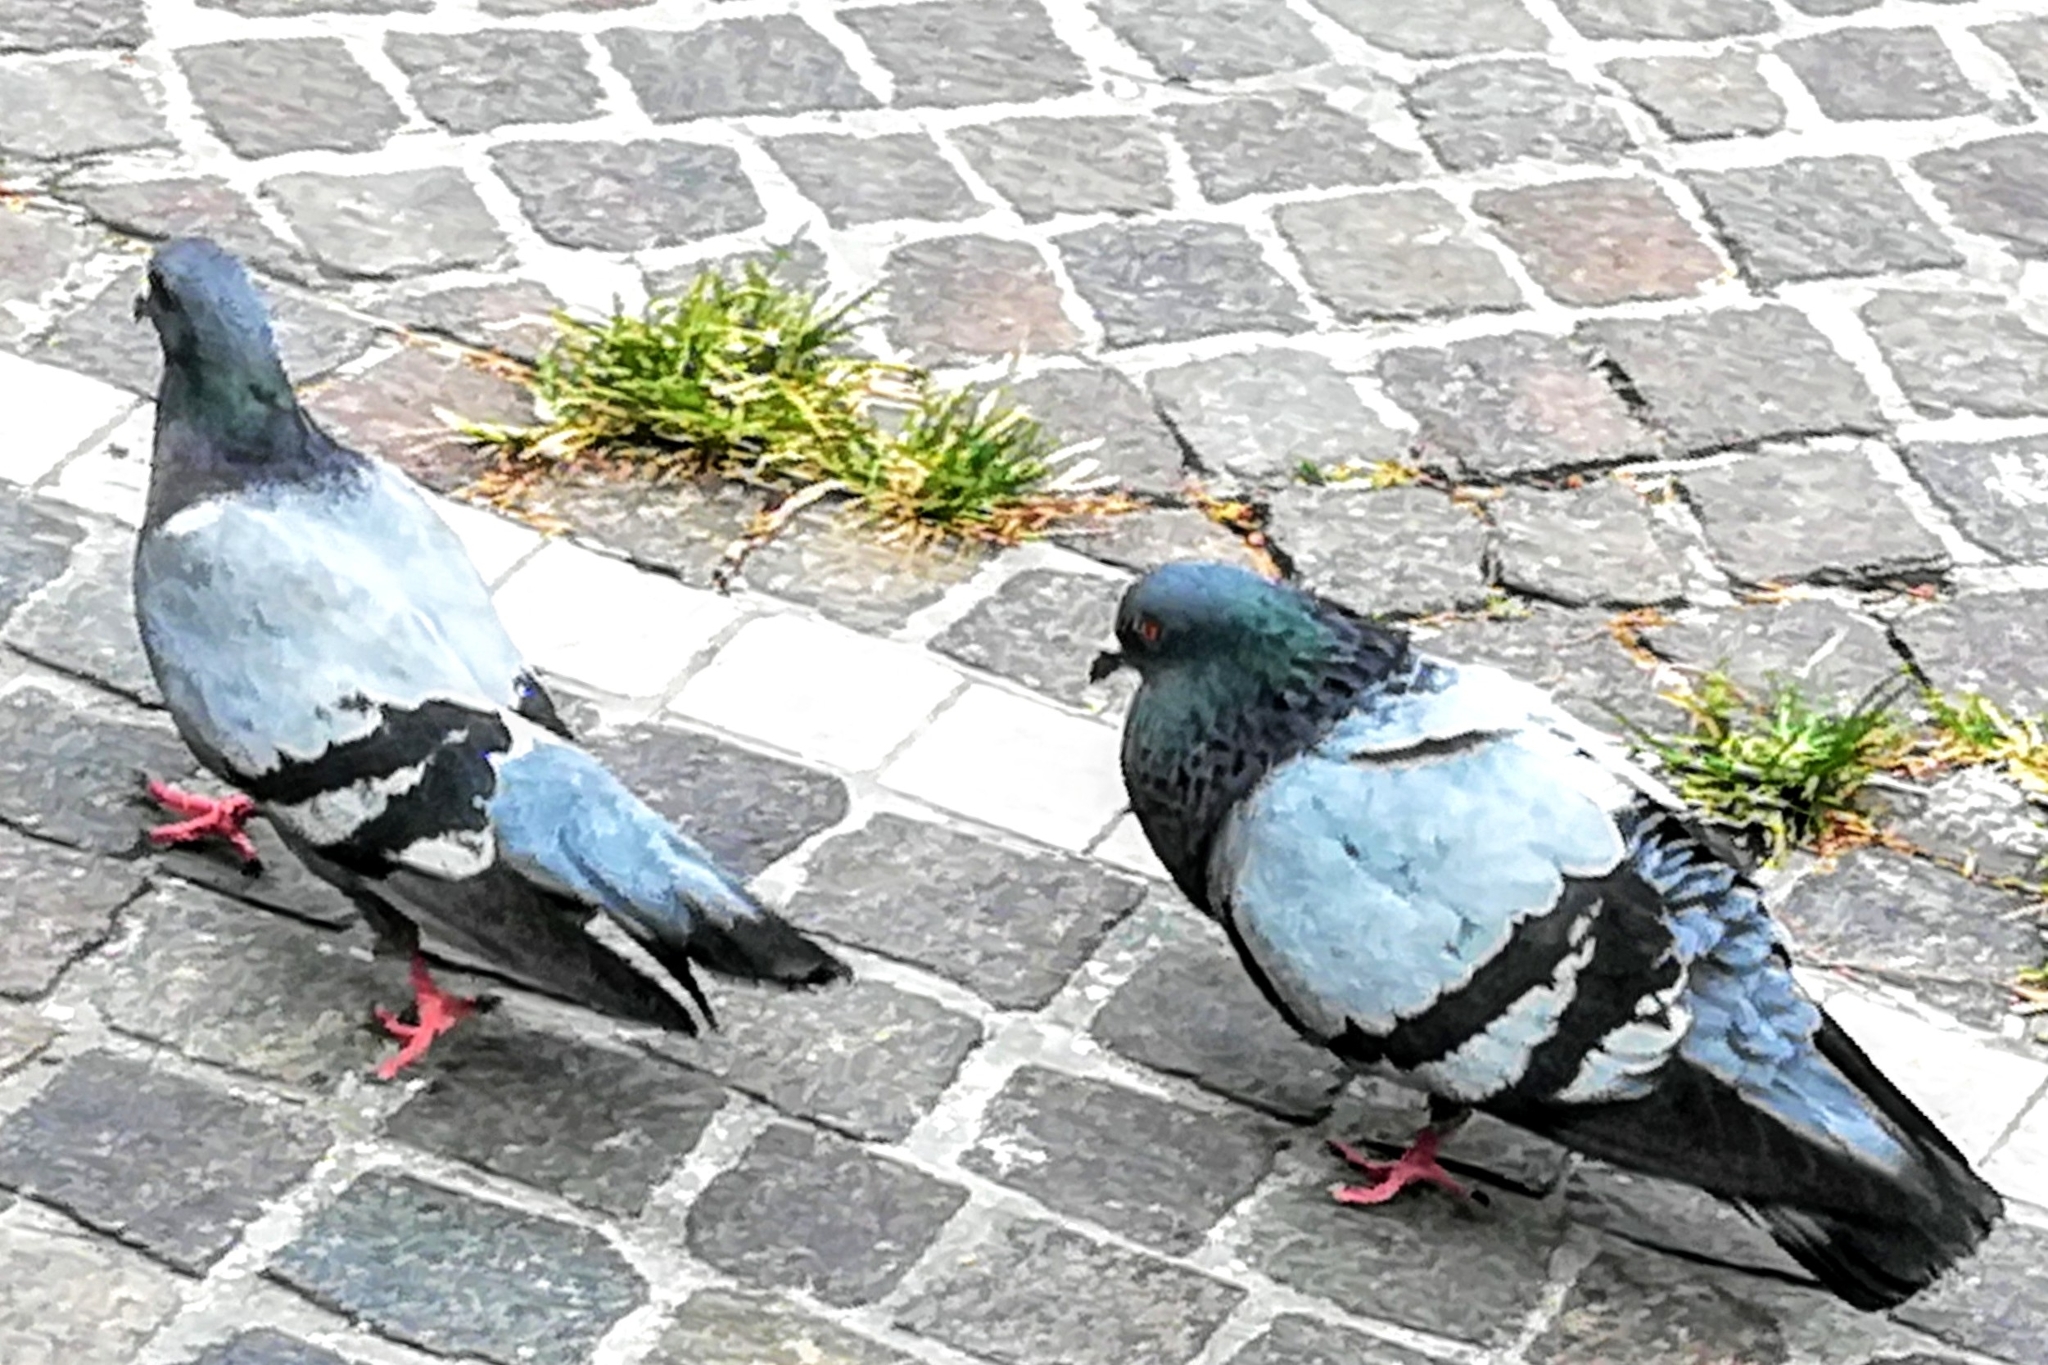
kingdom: Animalia
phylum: Chordata
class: Aves
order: Columbiformes
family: Columbidae
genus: Columba
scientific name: Columba livia
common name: Rock pigeon
